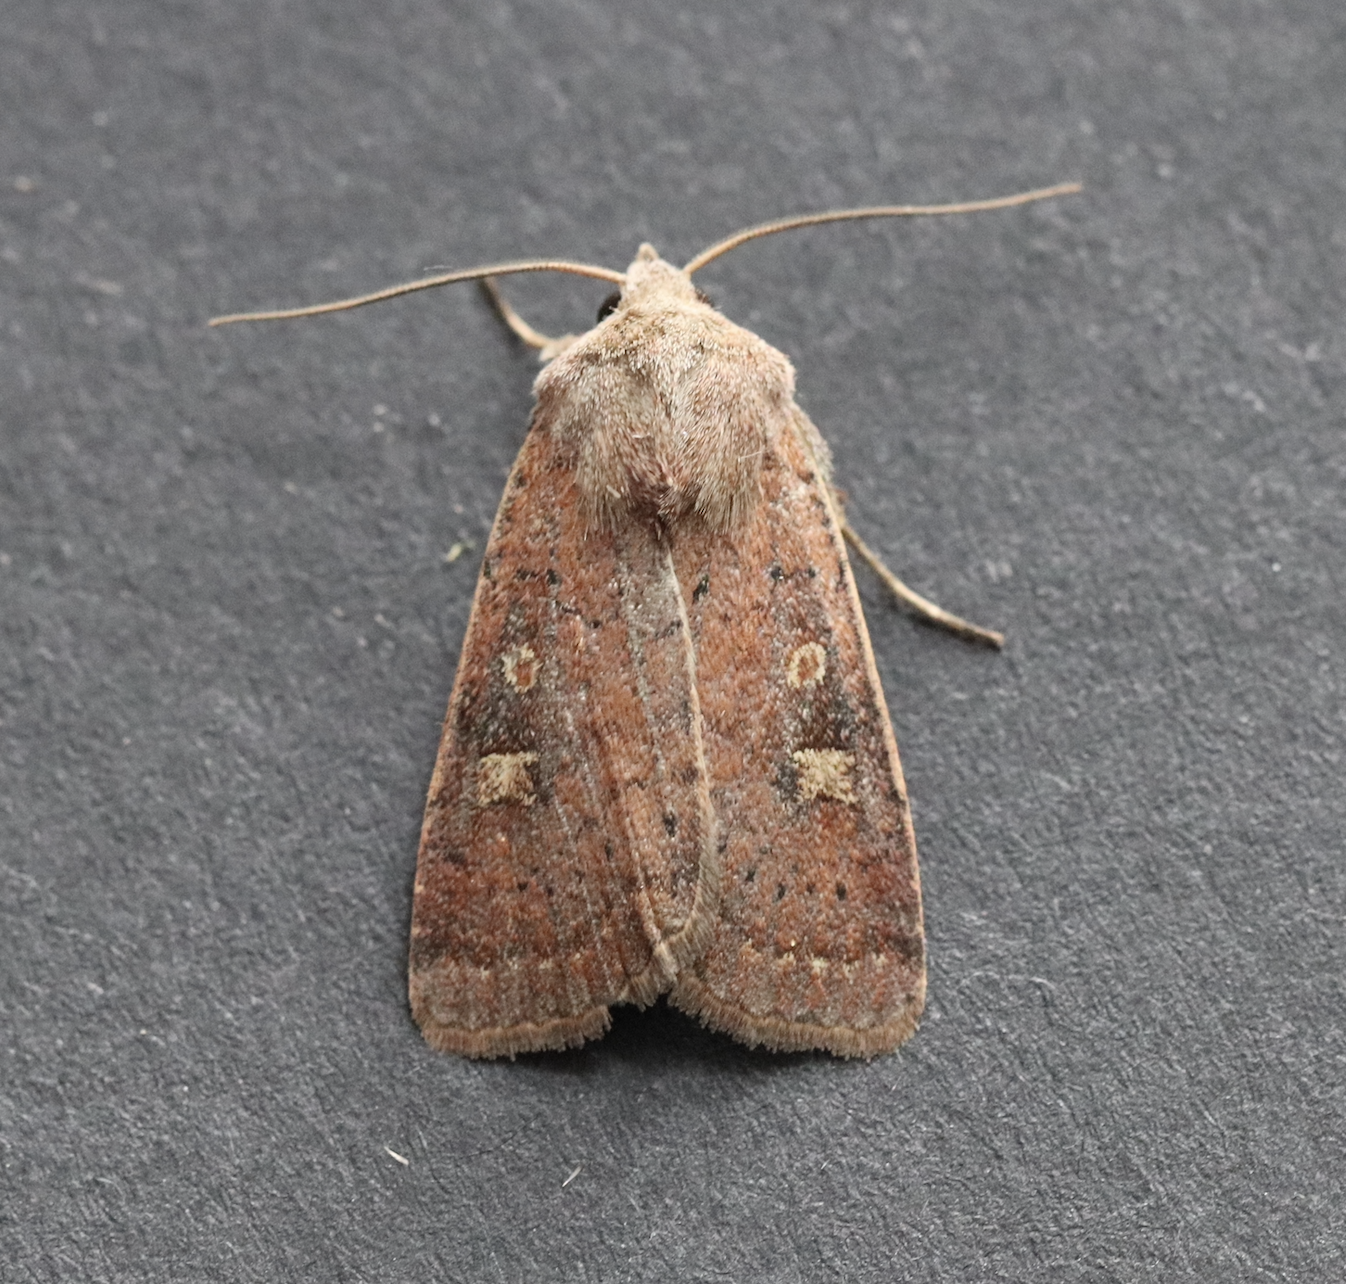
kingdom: Animalia
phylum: Arthropoda
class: Insecta
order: Lepidoptera
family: Noctuidae
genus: Xestia
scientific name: Xestia xanthographa
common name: Square-spot rustic
